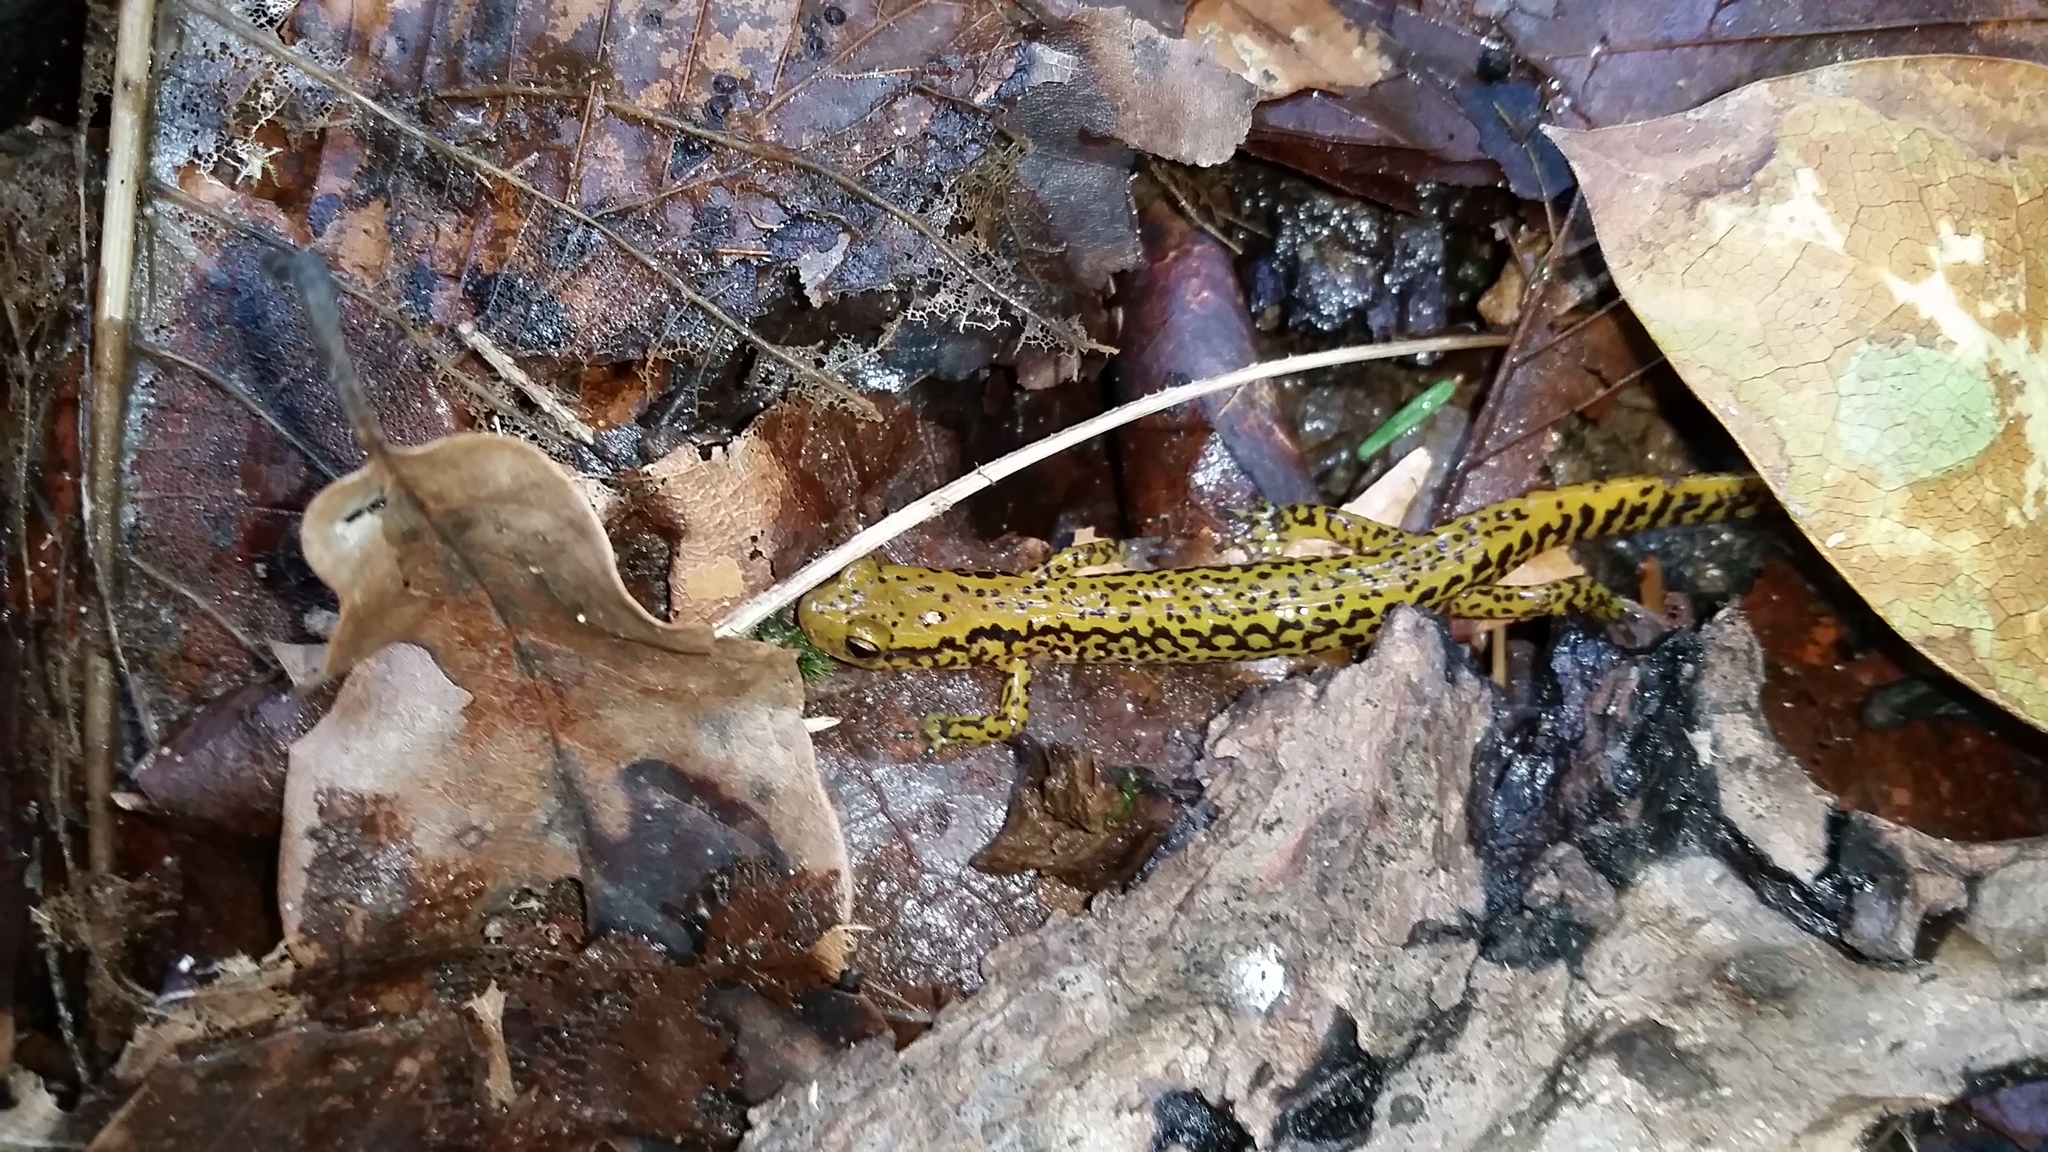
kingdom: Animalia
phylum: Chordata
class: Amphibia
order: Caudata
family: Plethodontidae
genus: Eurycea
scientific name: Eurycea longicauda
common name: Long-tailed salamander
